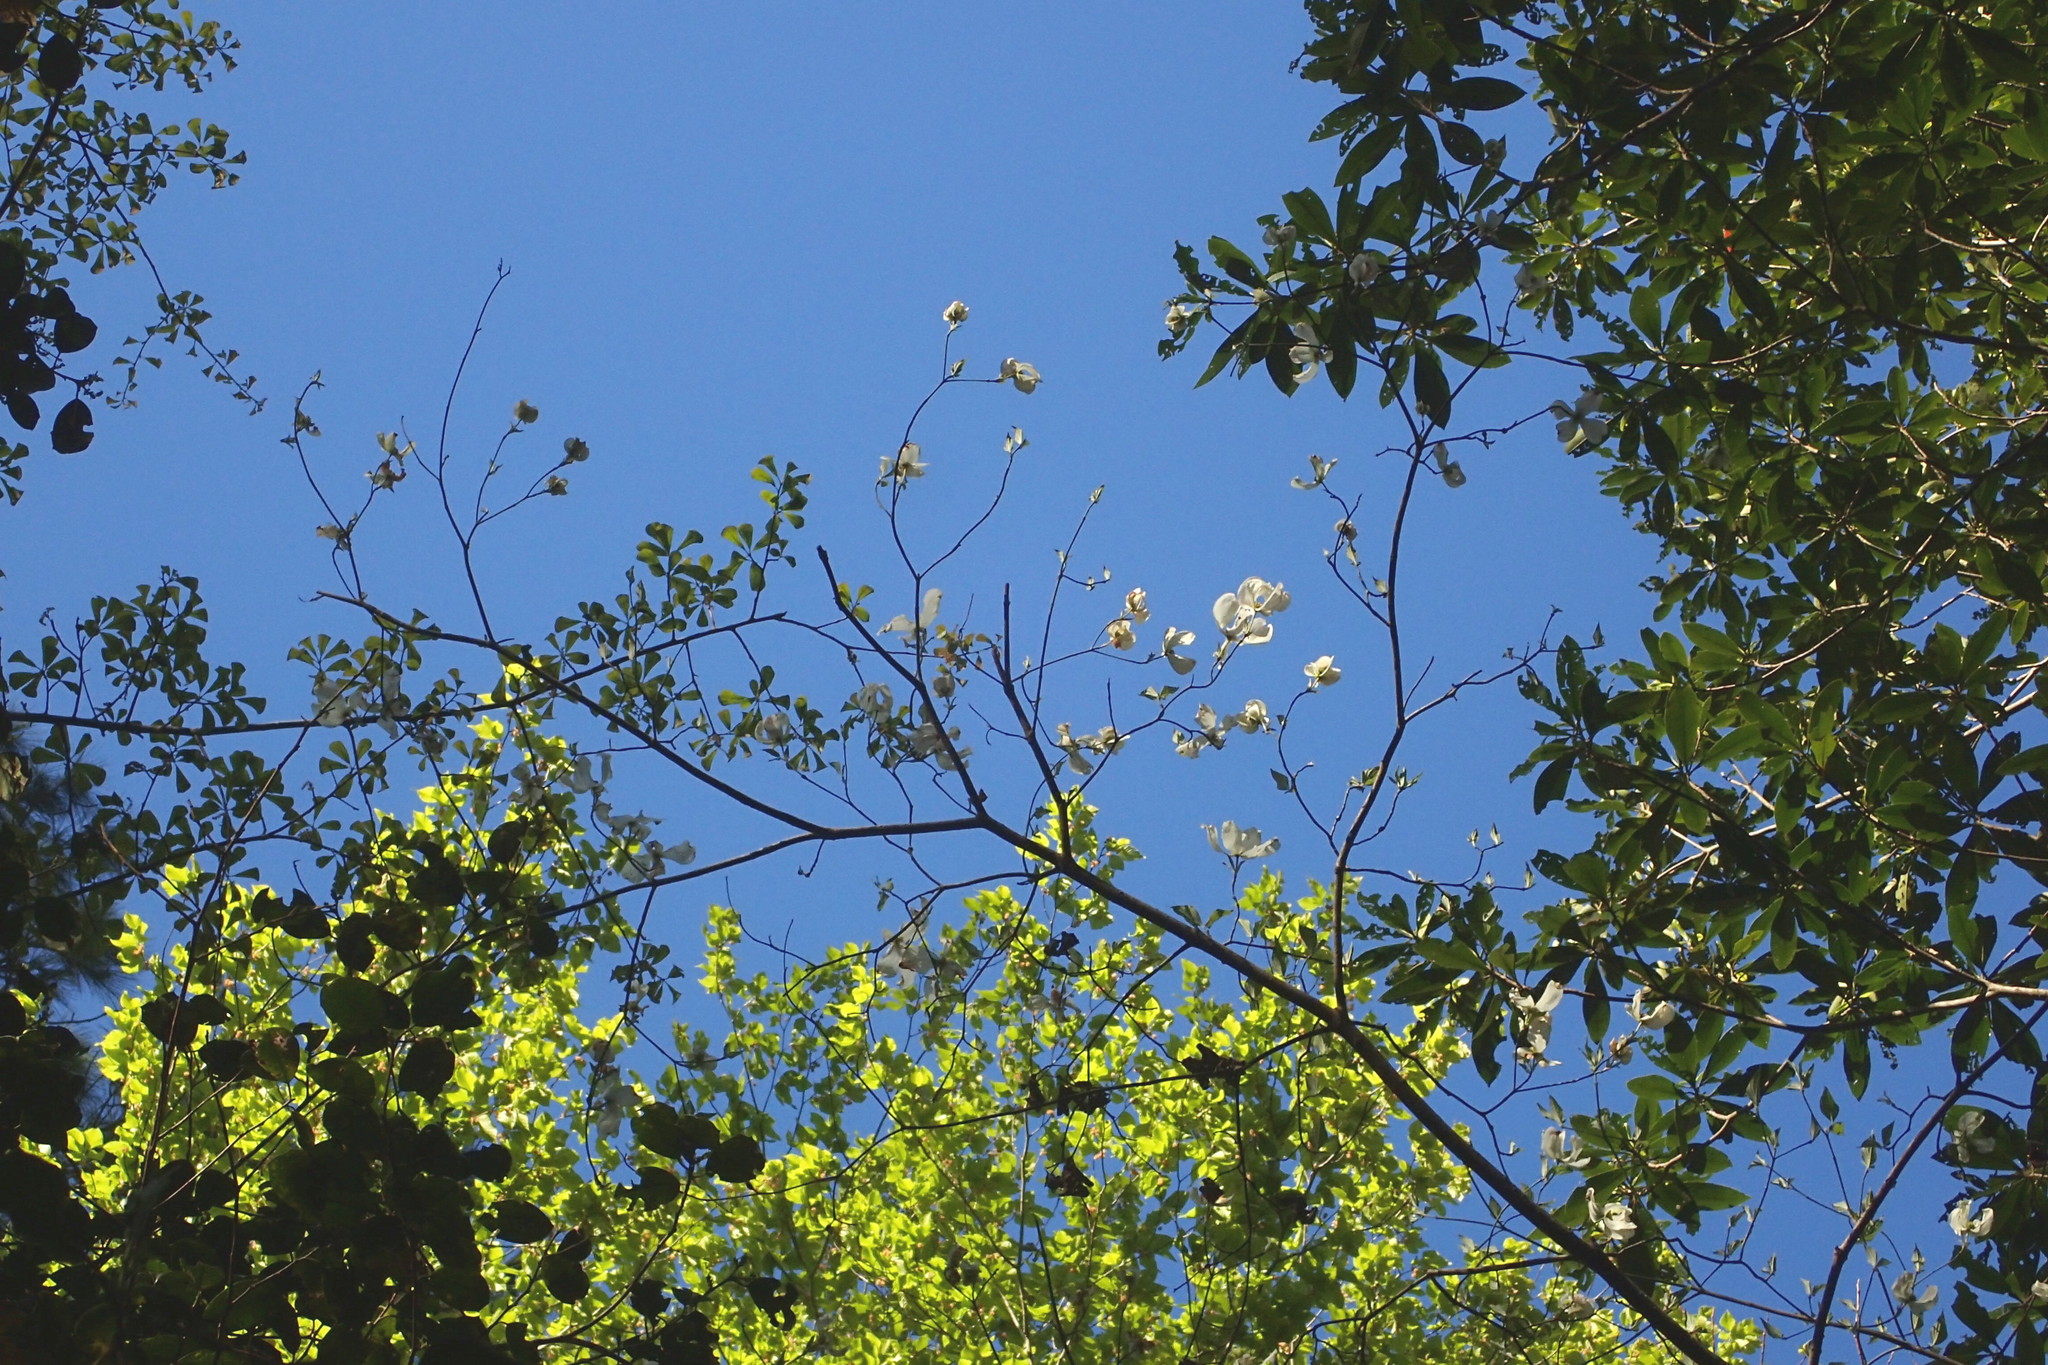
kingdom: Plantae
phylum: Tracheophyta
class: Magnoliopsida
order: Cornales
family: Cornaceae
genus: Cornus
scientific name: Cornus florida
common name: Flowering dogwood
